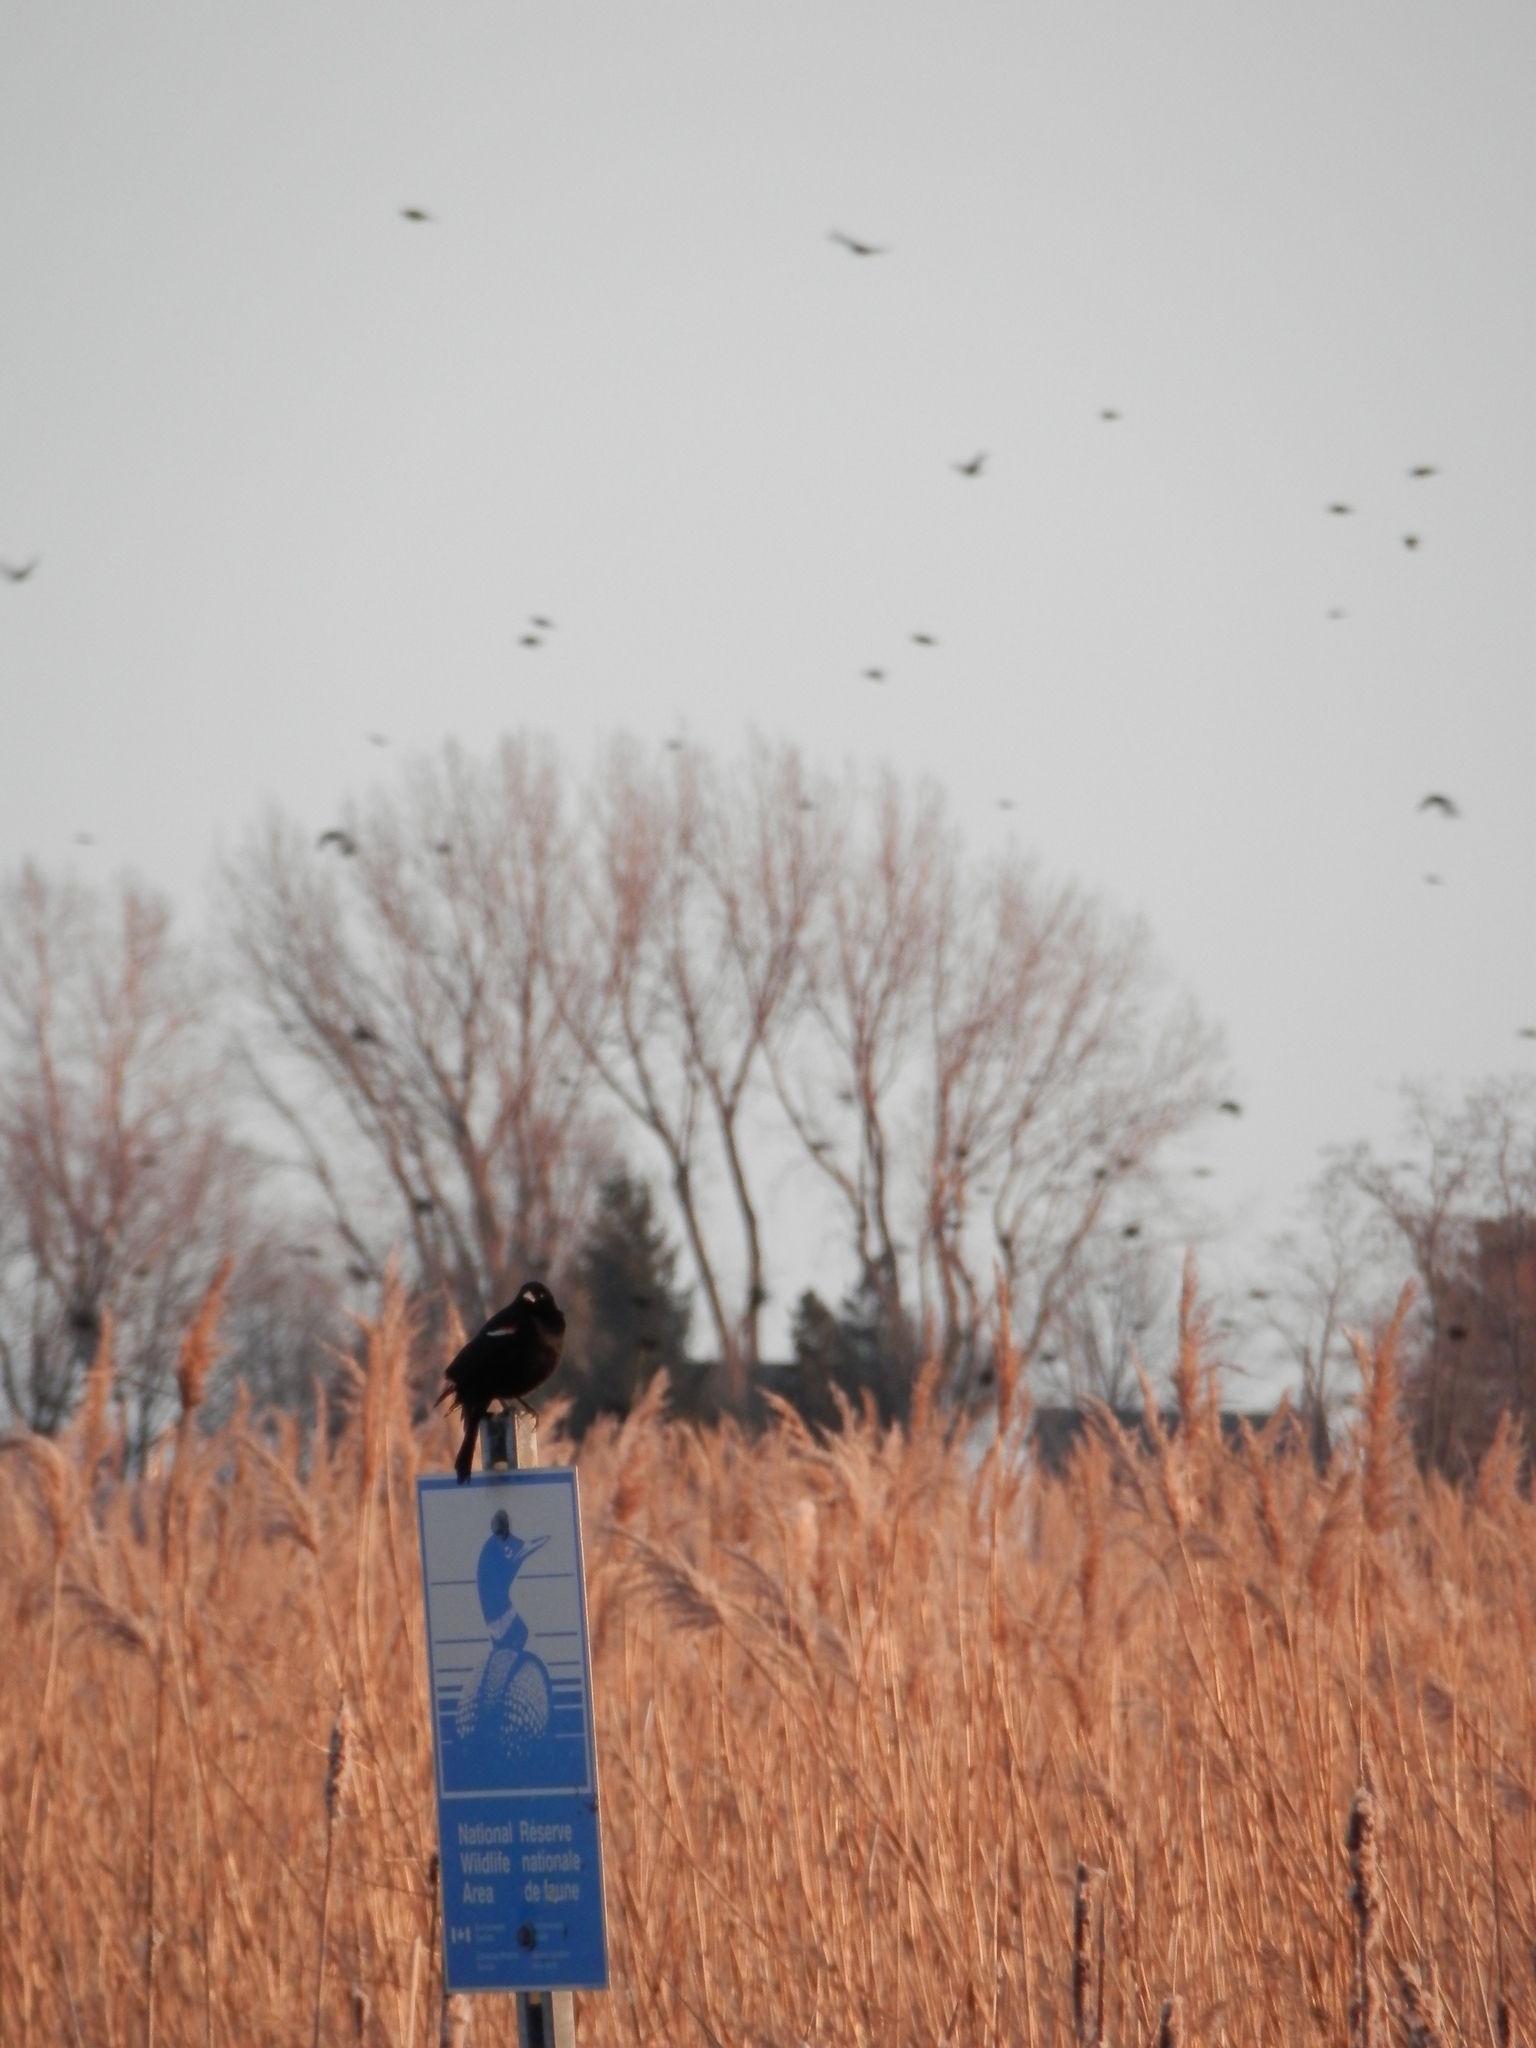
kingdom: Animalia
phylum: Chordata
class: Aves
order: Passeriformes
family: Icteridae
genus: Agelaius
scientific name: Agelaius phoeniceus
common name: Red-winged blackbird
